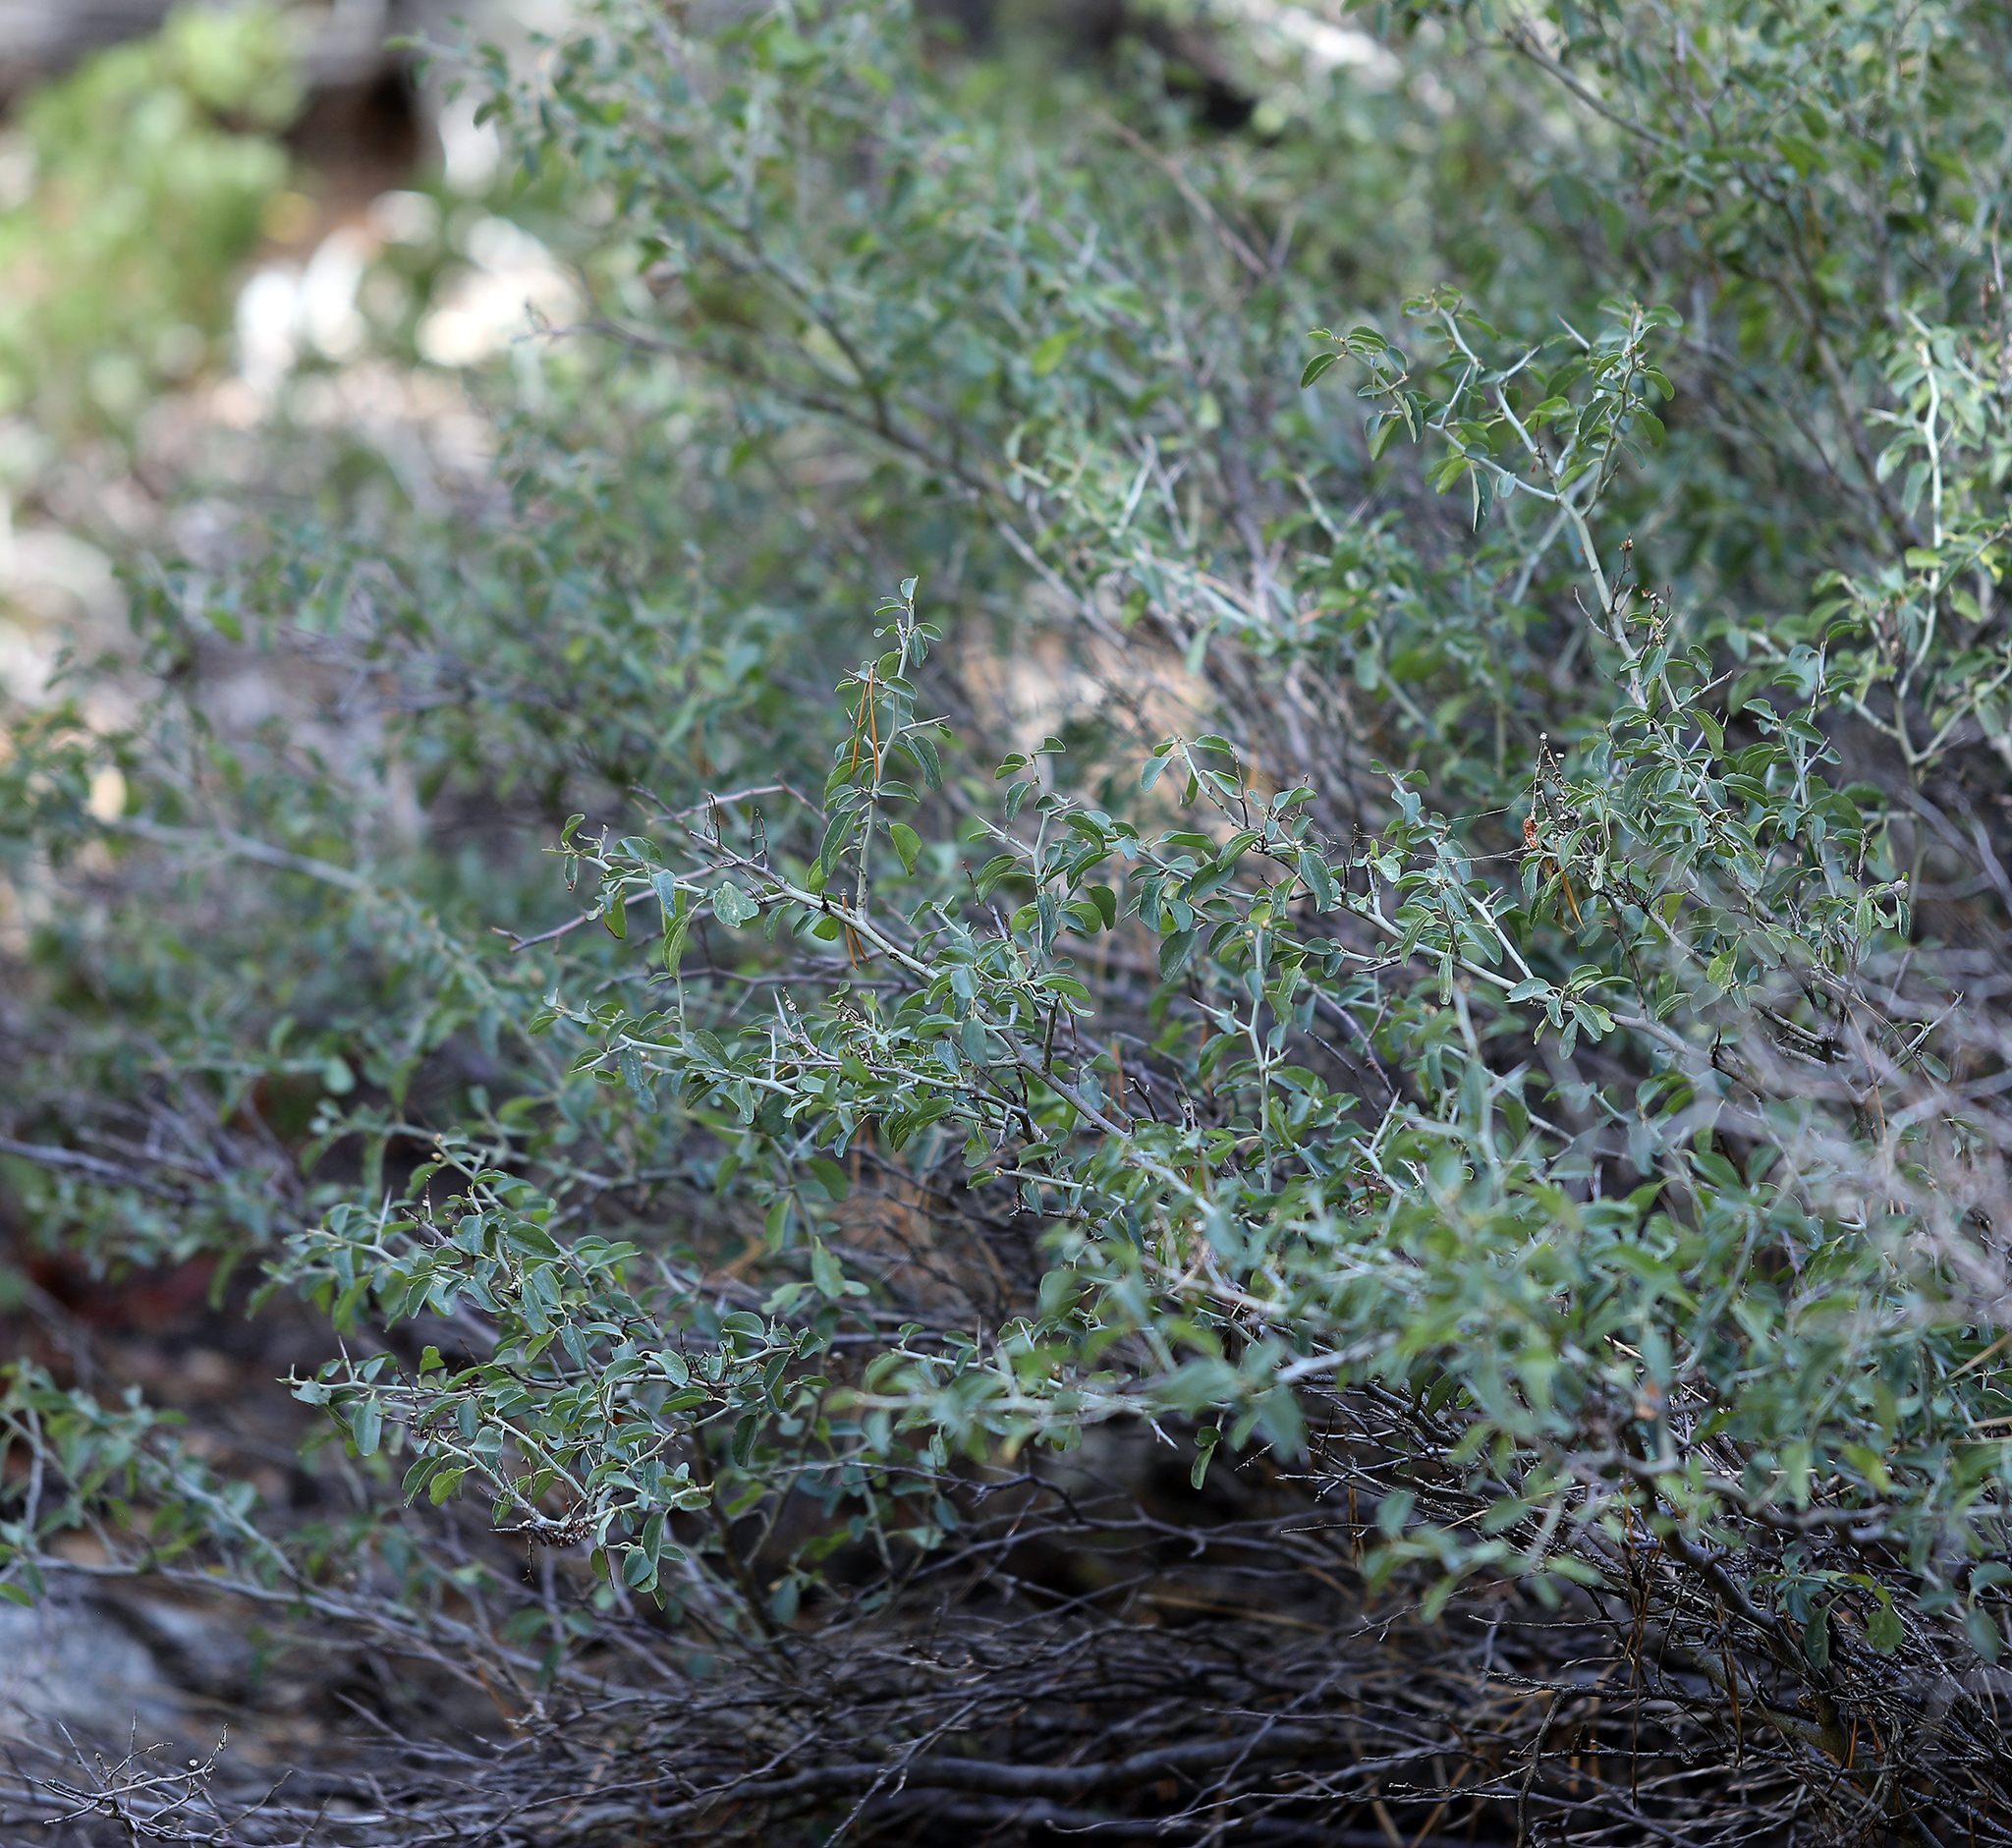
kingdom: Plantae
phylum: Tracheophyta
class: Magnoliopsida
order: Rosales
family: Rhamnaceae
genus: Ceanothus
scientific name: Ceanothus cordulatus
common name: Mountain whitethorn
